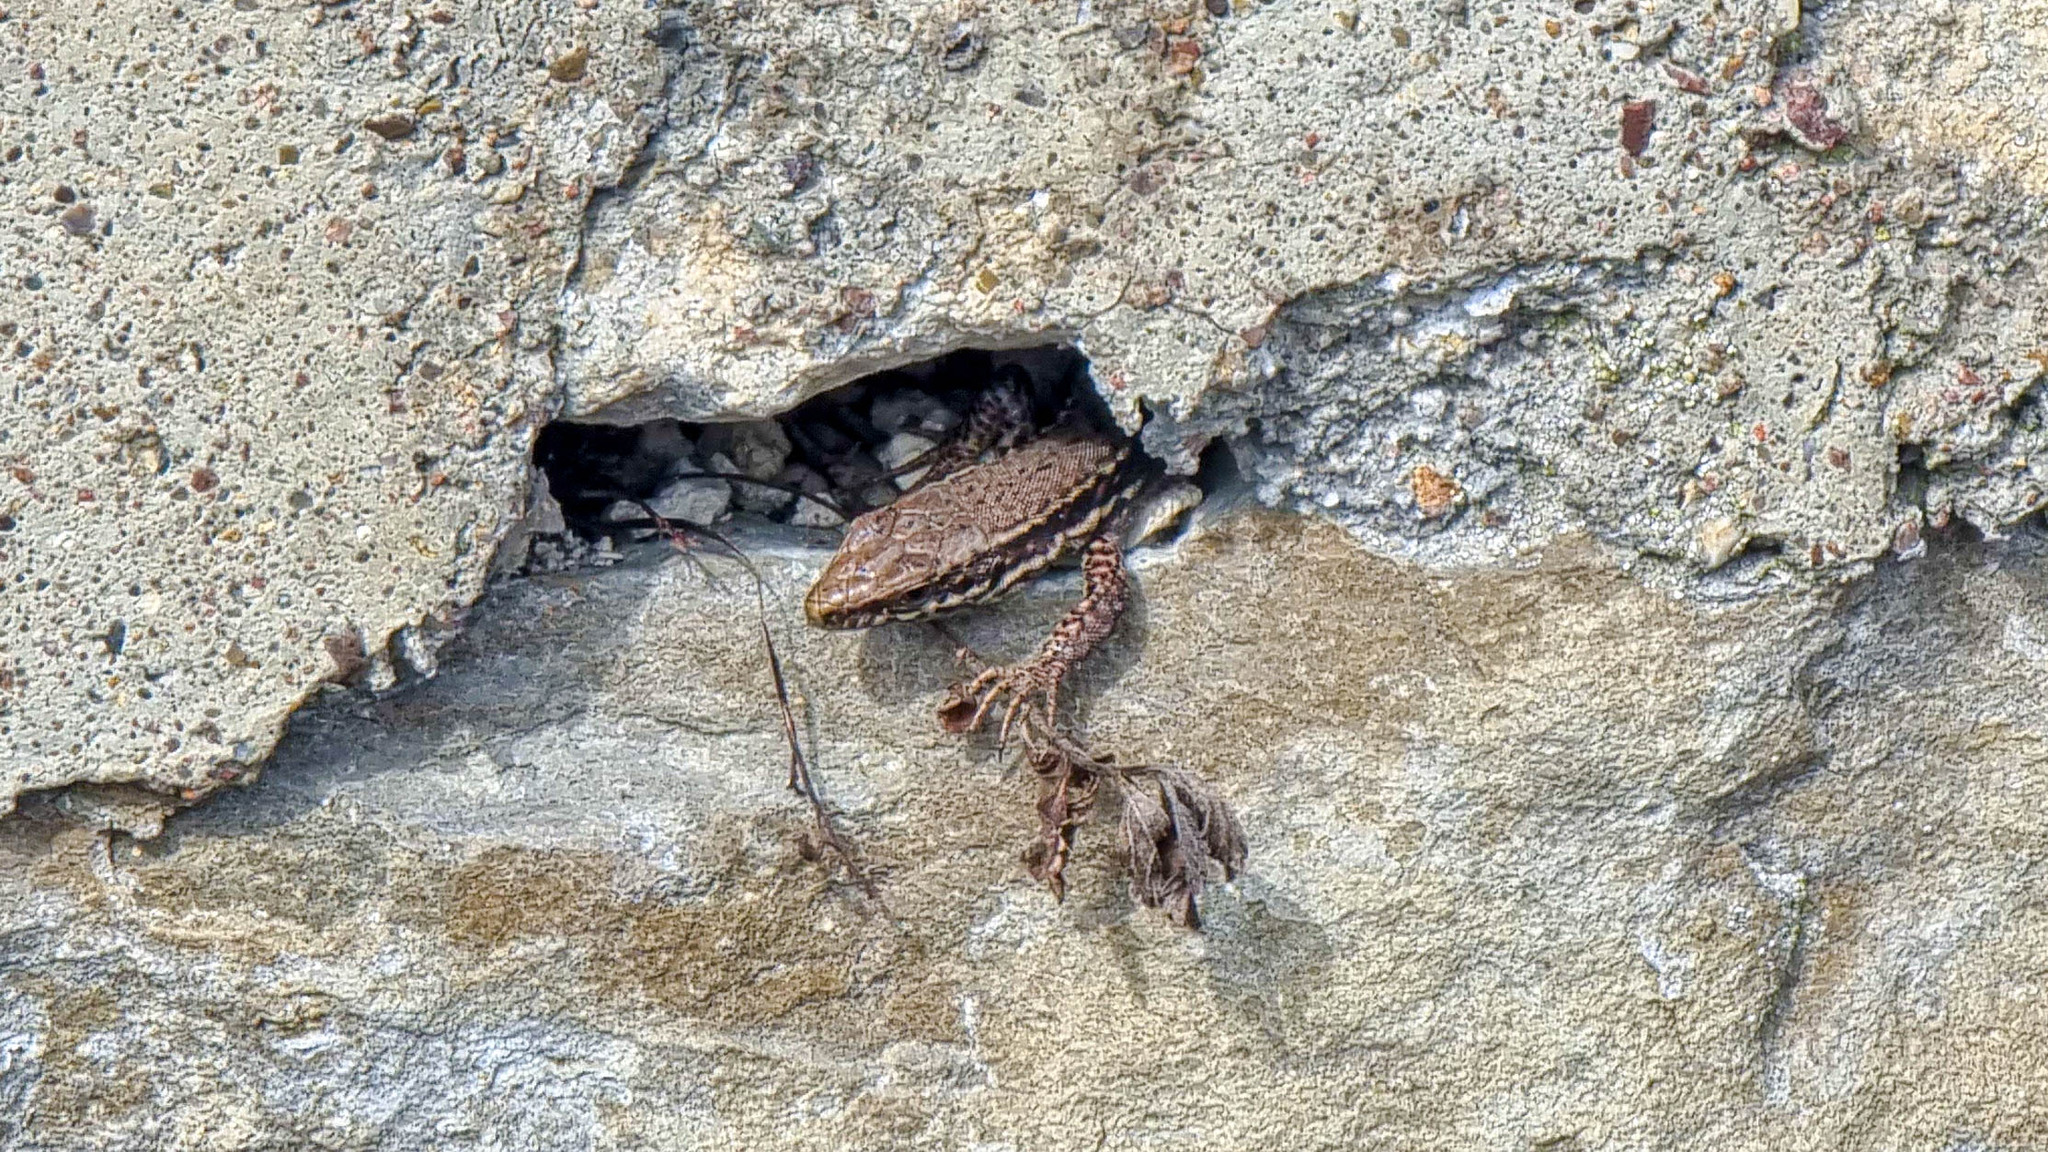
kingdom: Animalia
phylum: Chordata
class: Squamata
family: Lacertidae
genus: Podarcis
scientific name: Podarcis muralis
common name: Common wall lizard
